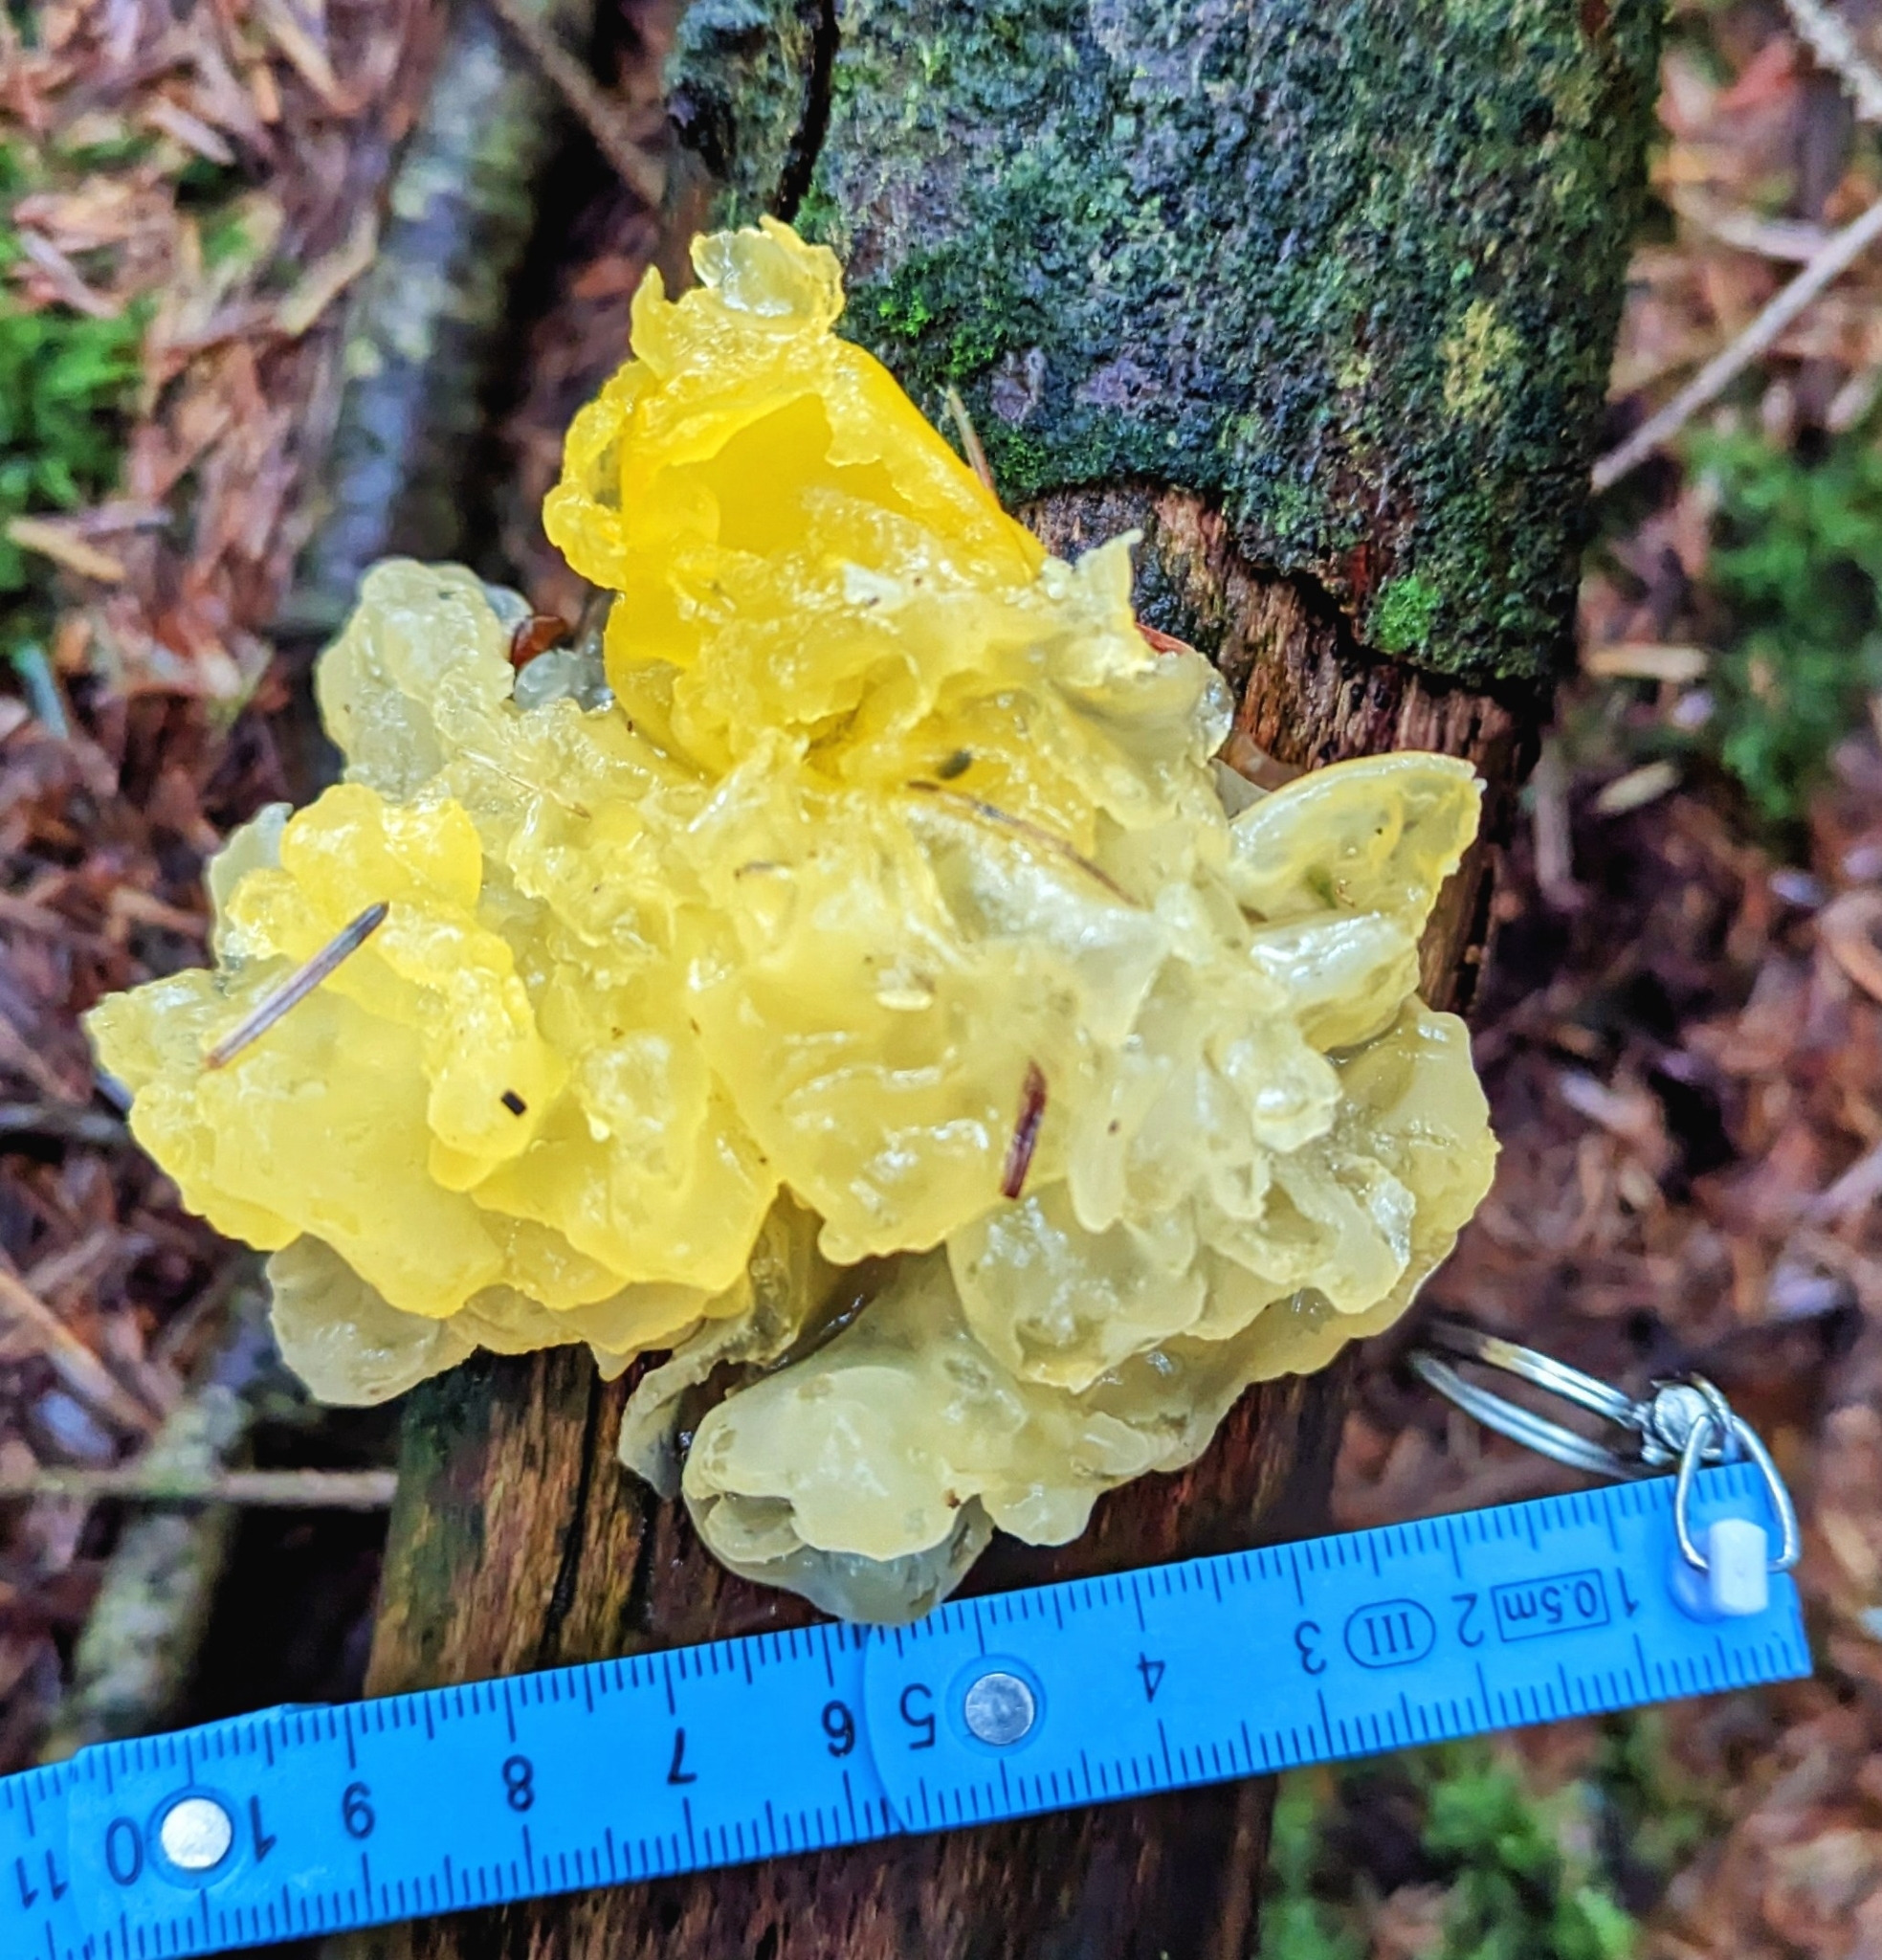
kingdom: Fungi
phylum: Basidiomycota
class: Tremellomycetes
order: Tremellales
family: Tremellaceae
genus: Tremella
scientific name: Tremella mesenterica
